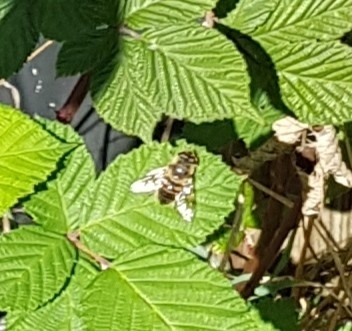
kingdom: Animalia
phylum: Arthropoda
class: Insecta
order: Diptera
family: Syrphidae
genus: Eristalis
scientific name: Eristalis tenax
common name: Drone fly
